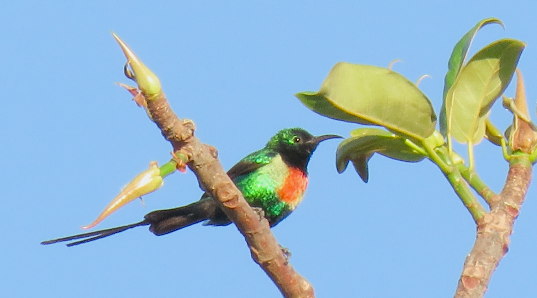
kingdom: Animalia
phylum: Chordata
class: Aves
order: Passeriformes
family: Nectariniidae
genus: Cinnyris
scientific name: Cinnyris pulchellus
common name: Beautiful sunbird
